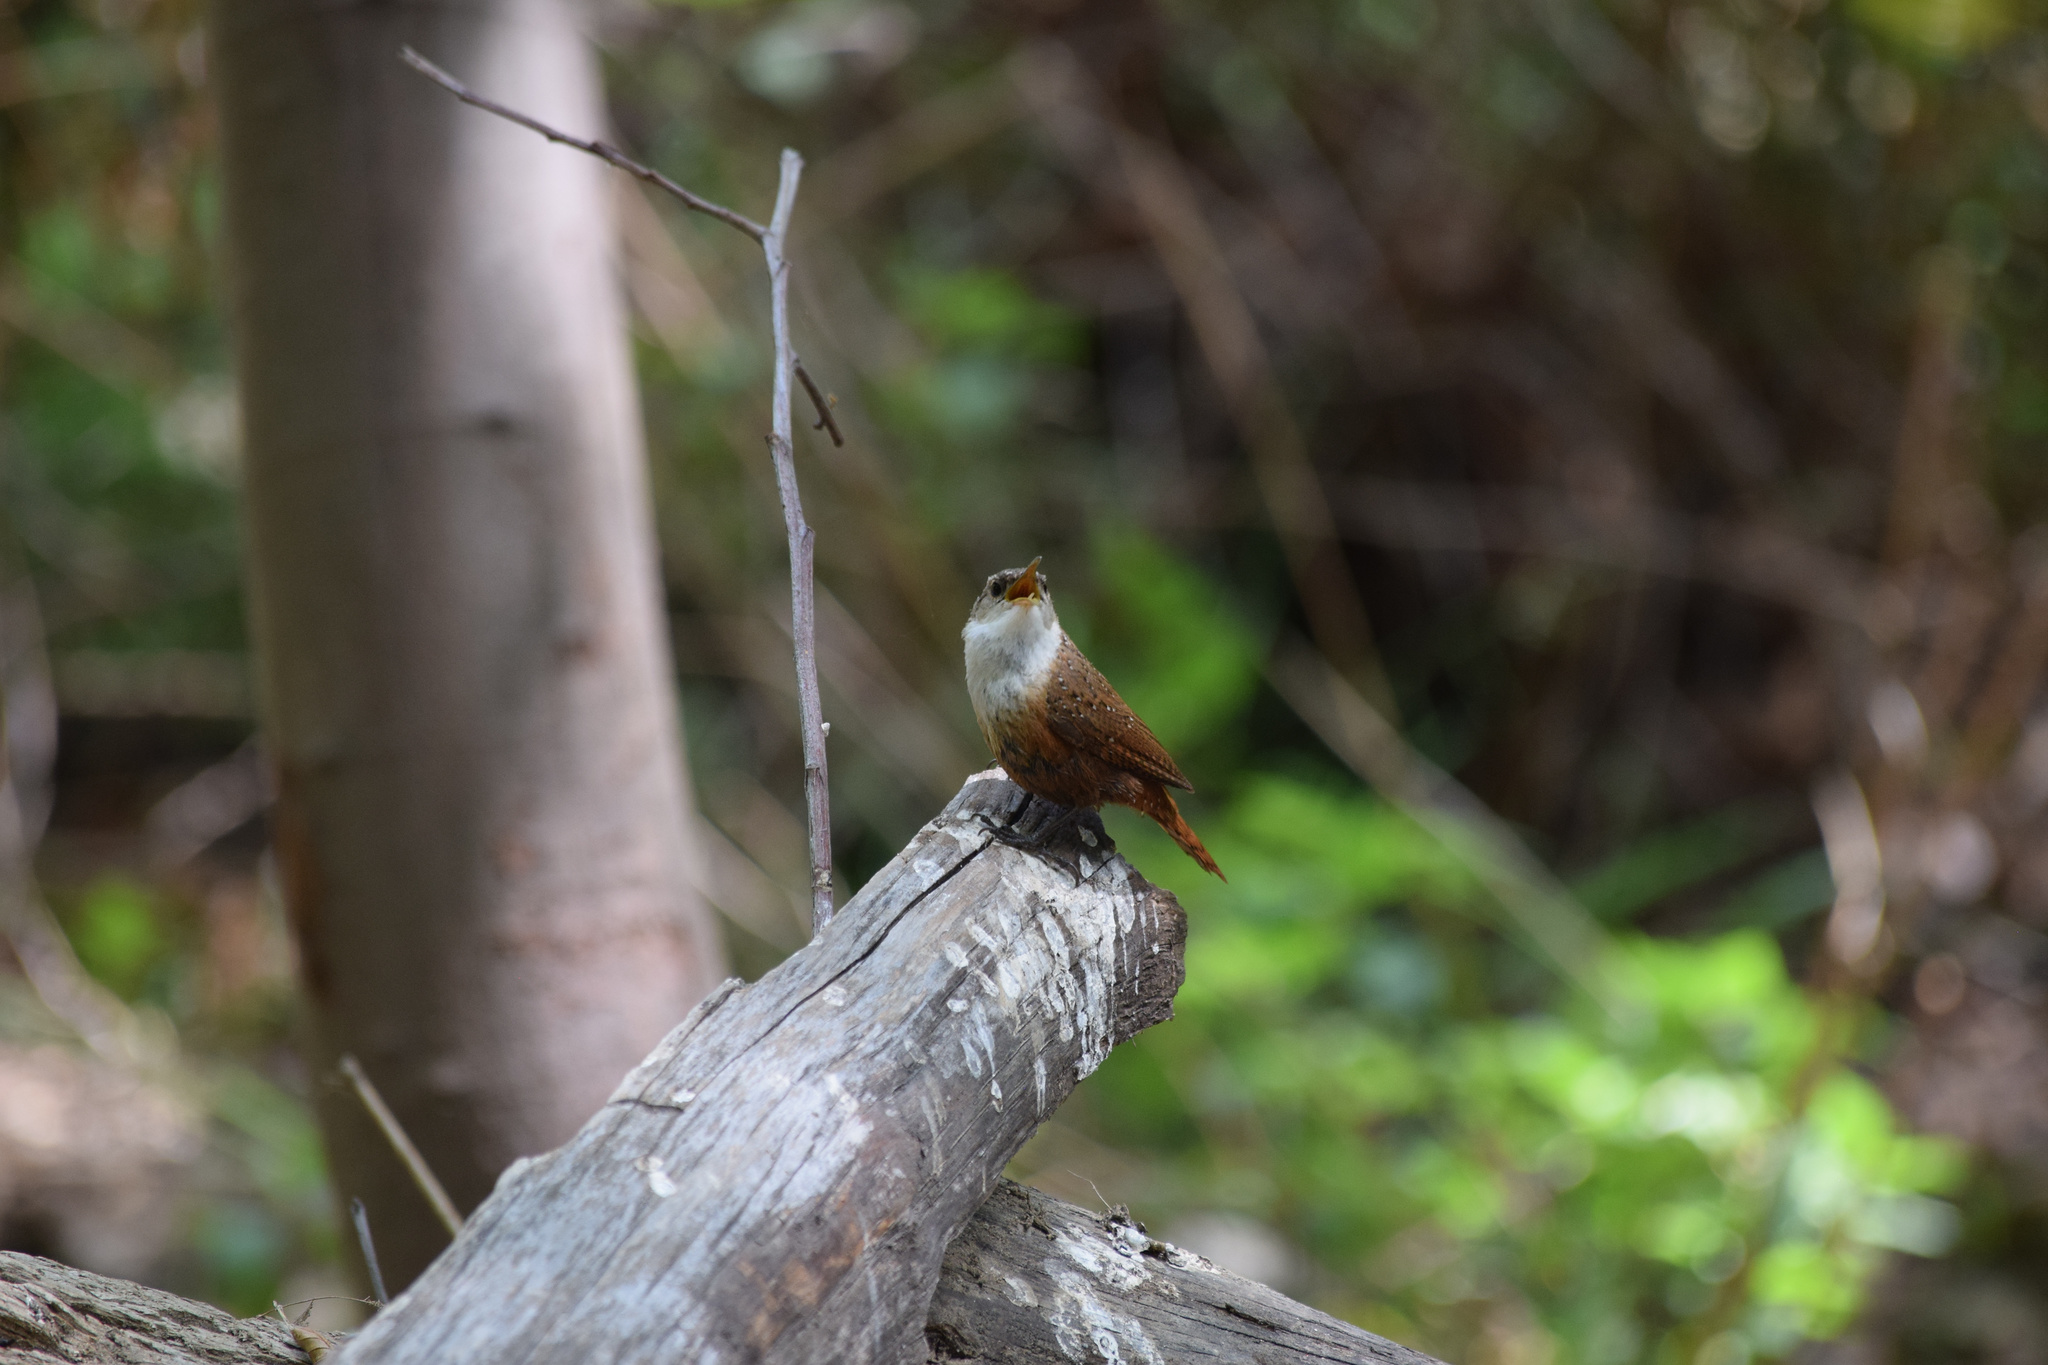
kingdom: Animalia
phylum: Chordata
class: Aves
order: Passeriformes
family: Troglodytidae
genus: Catherpes
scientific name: Catherpes mexicanus
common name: Canyon wren
